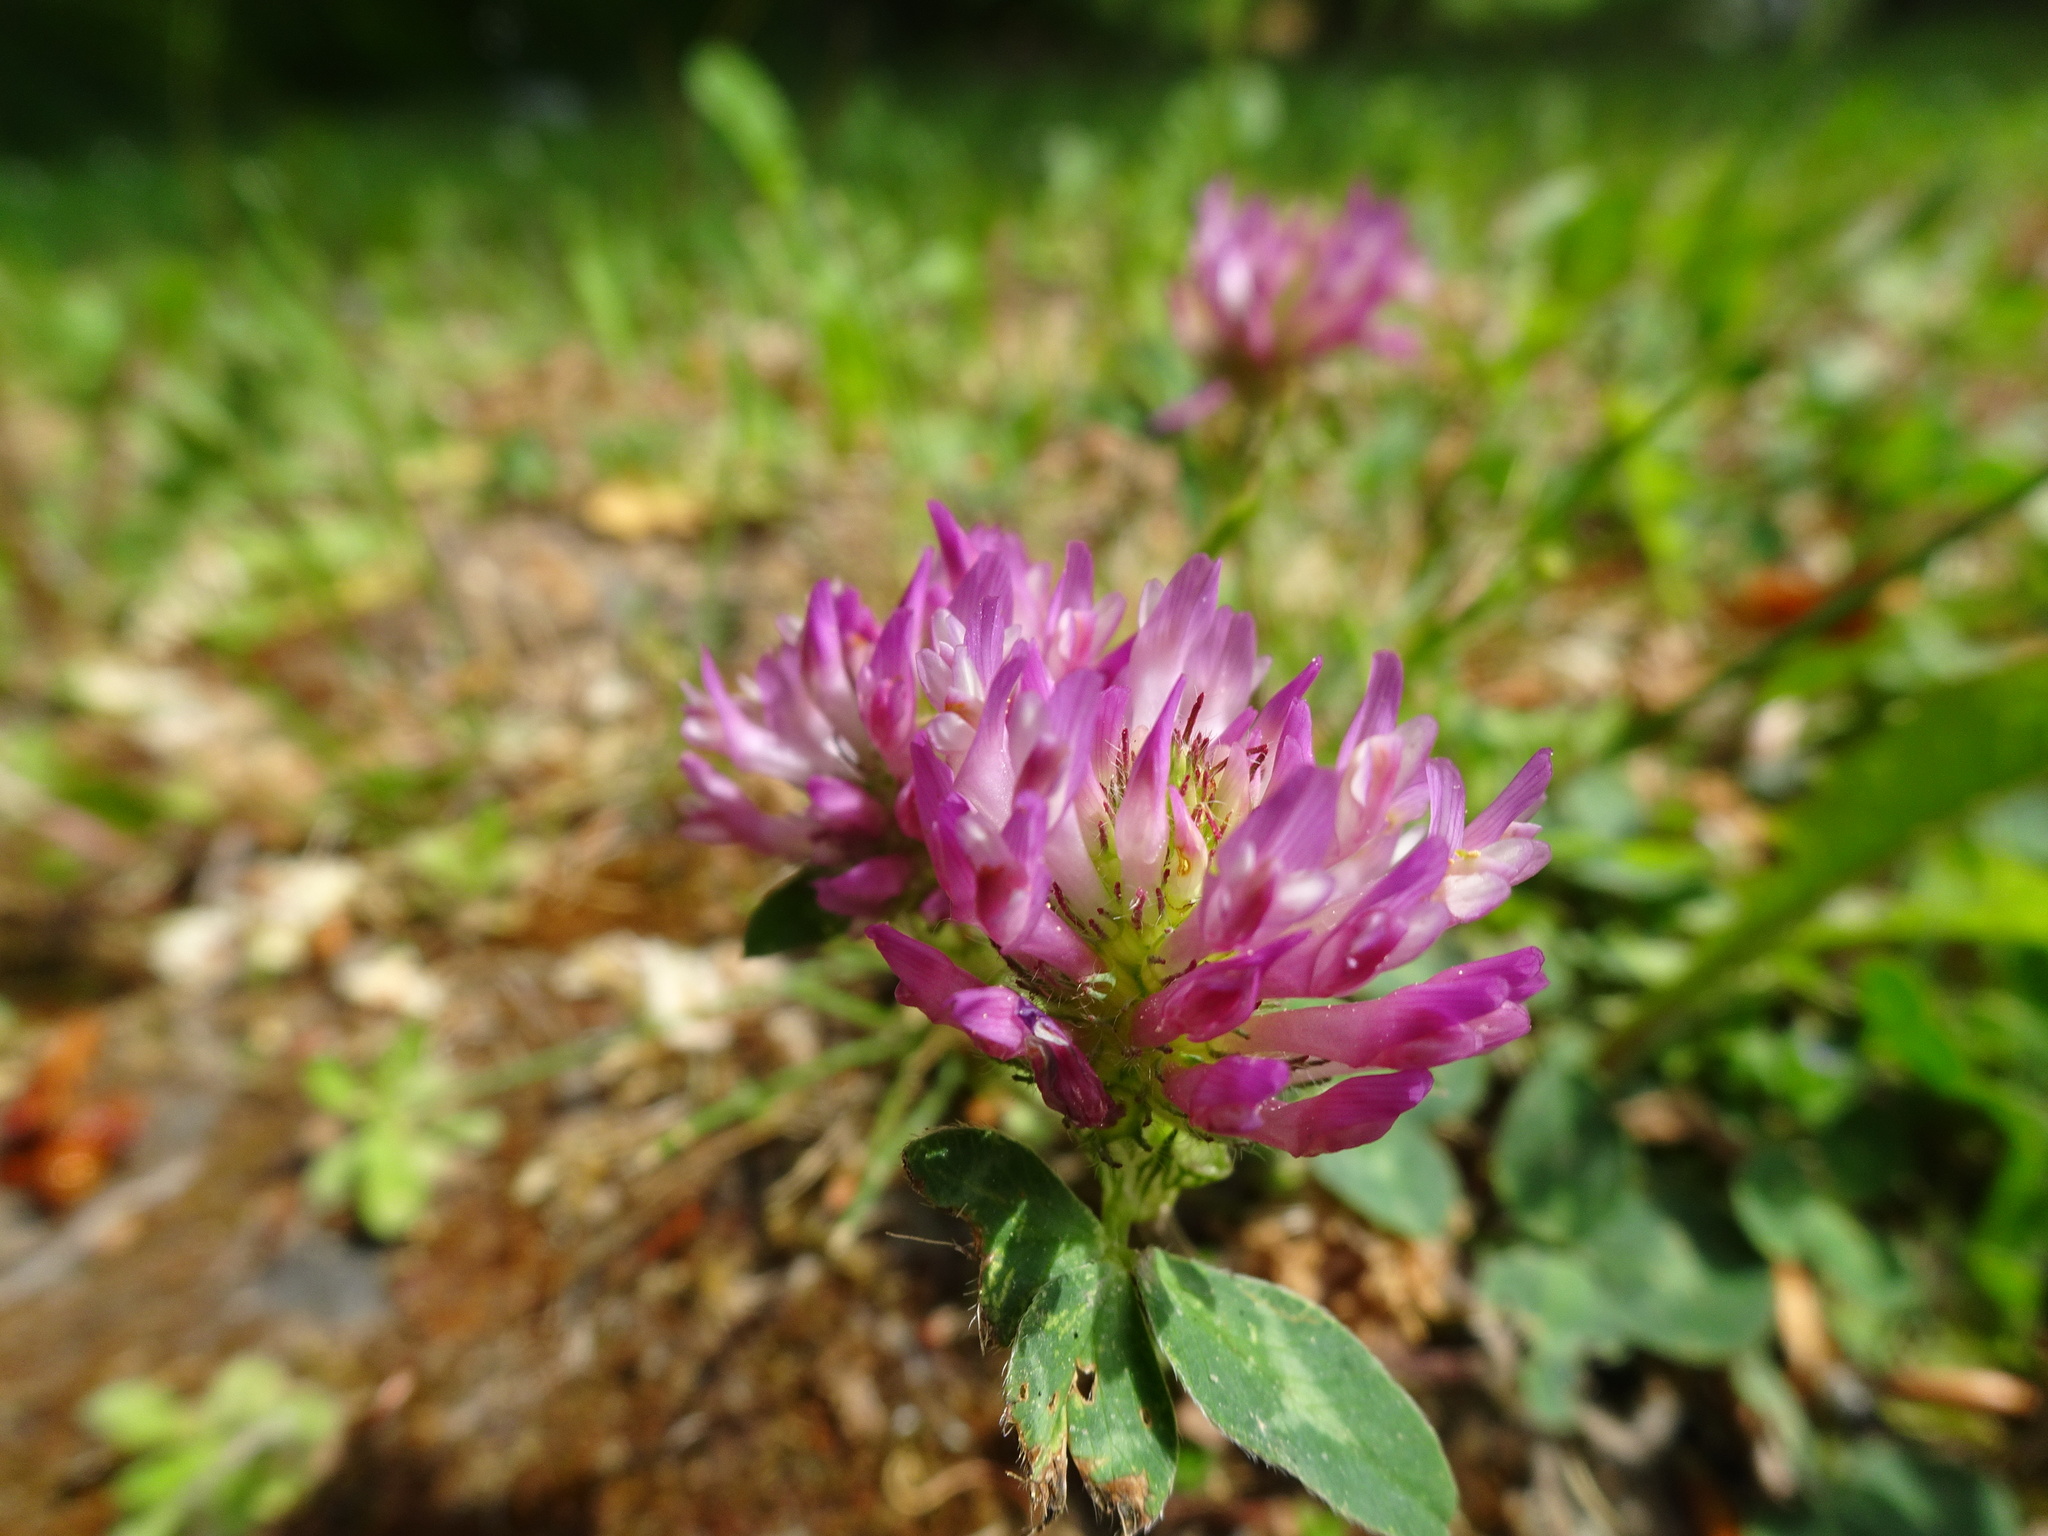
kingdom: Plantae
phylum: Tracheophyta
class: Magnoliopsida
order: Fabales
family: Fabaceae
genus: Trifolium
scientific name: Trifolium pratense
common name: Red clover
